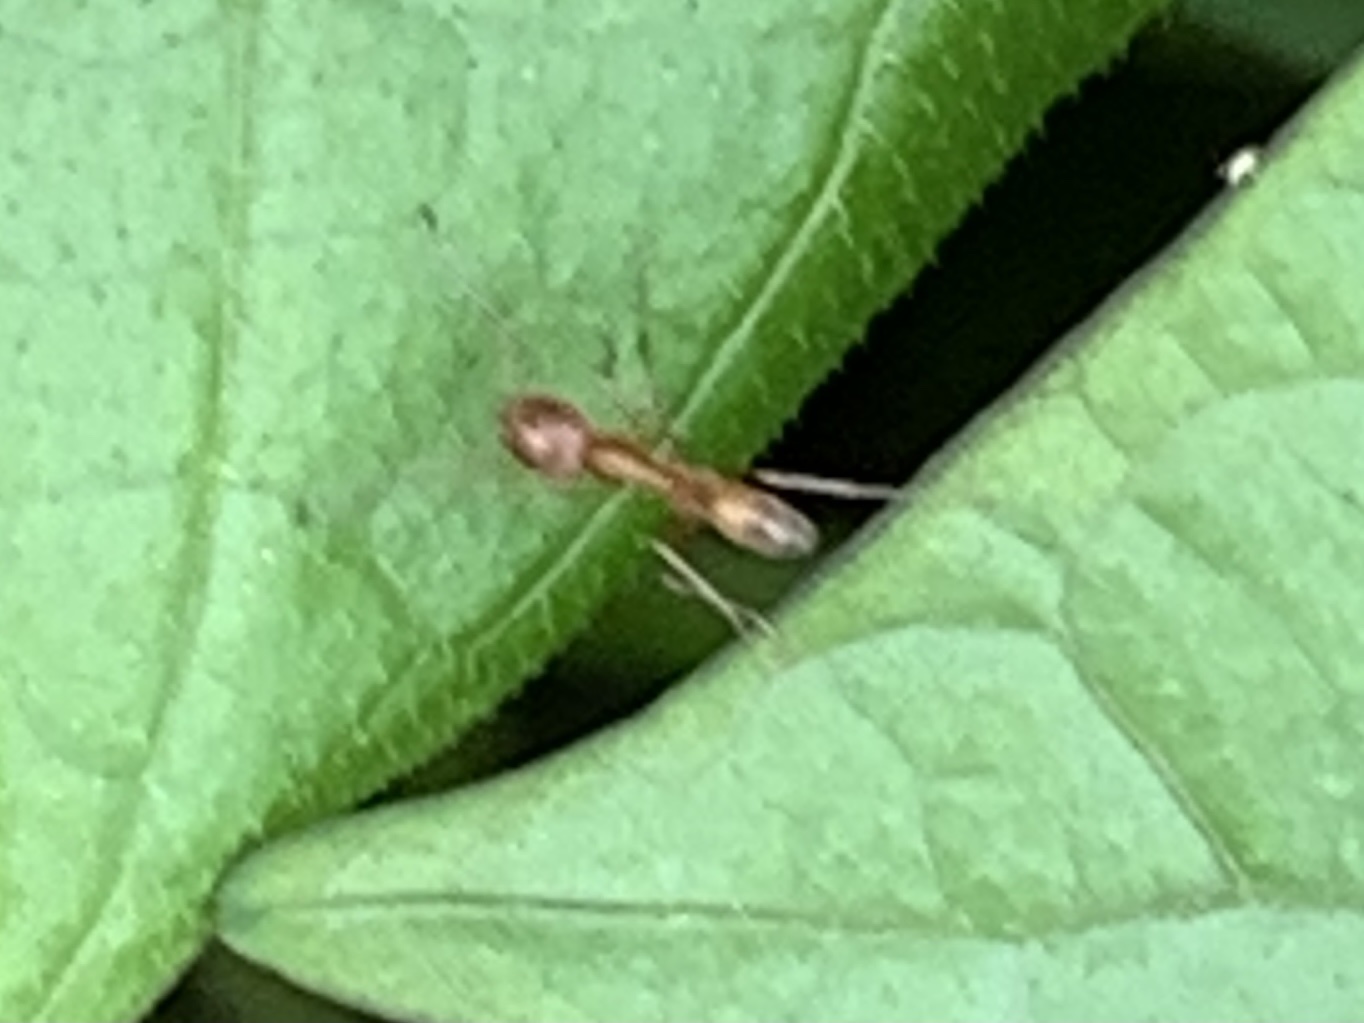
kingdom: Animalia
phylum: Arthropoda
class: Insecta
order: Hymenoptera
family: Formicidae
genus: Dorymyrmex
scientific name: Dorymyrmex bureni
